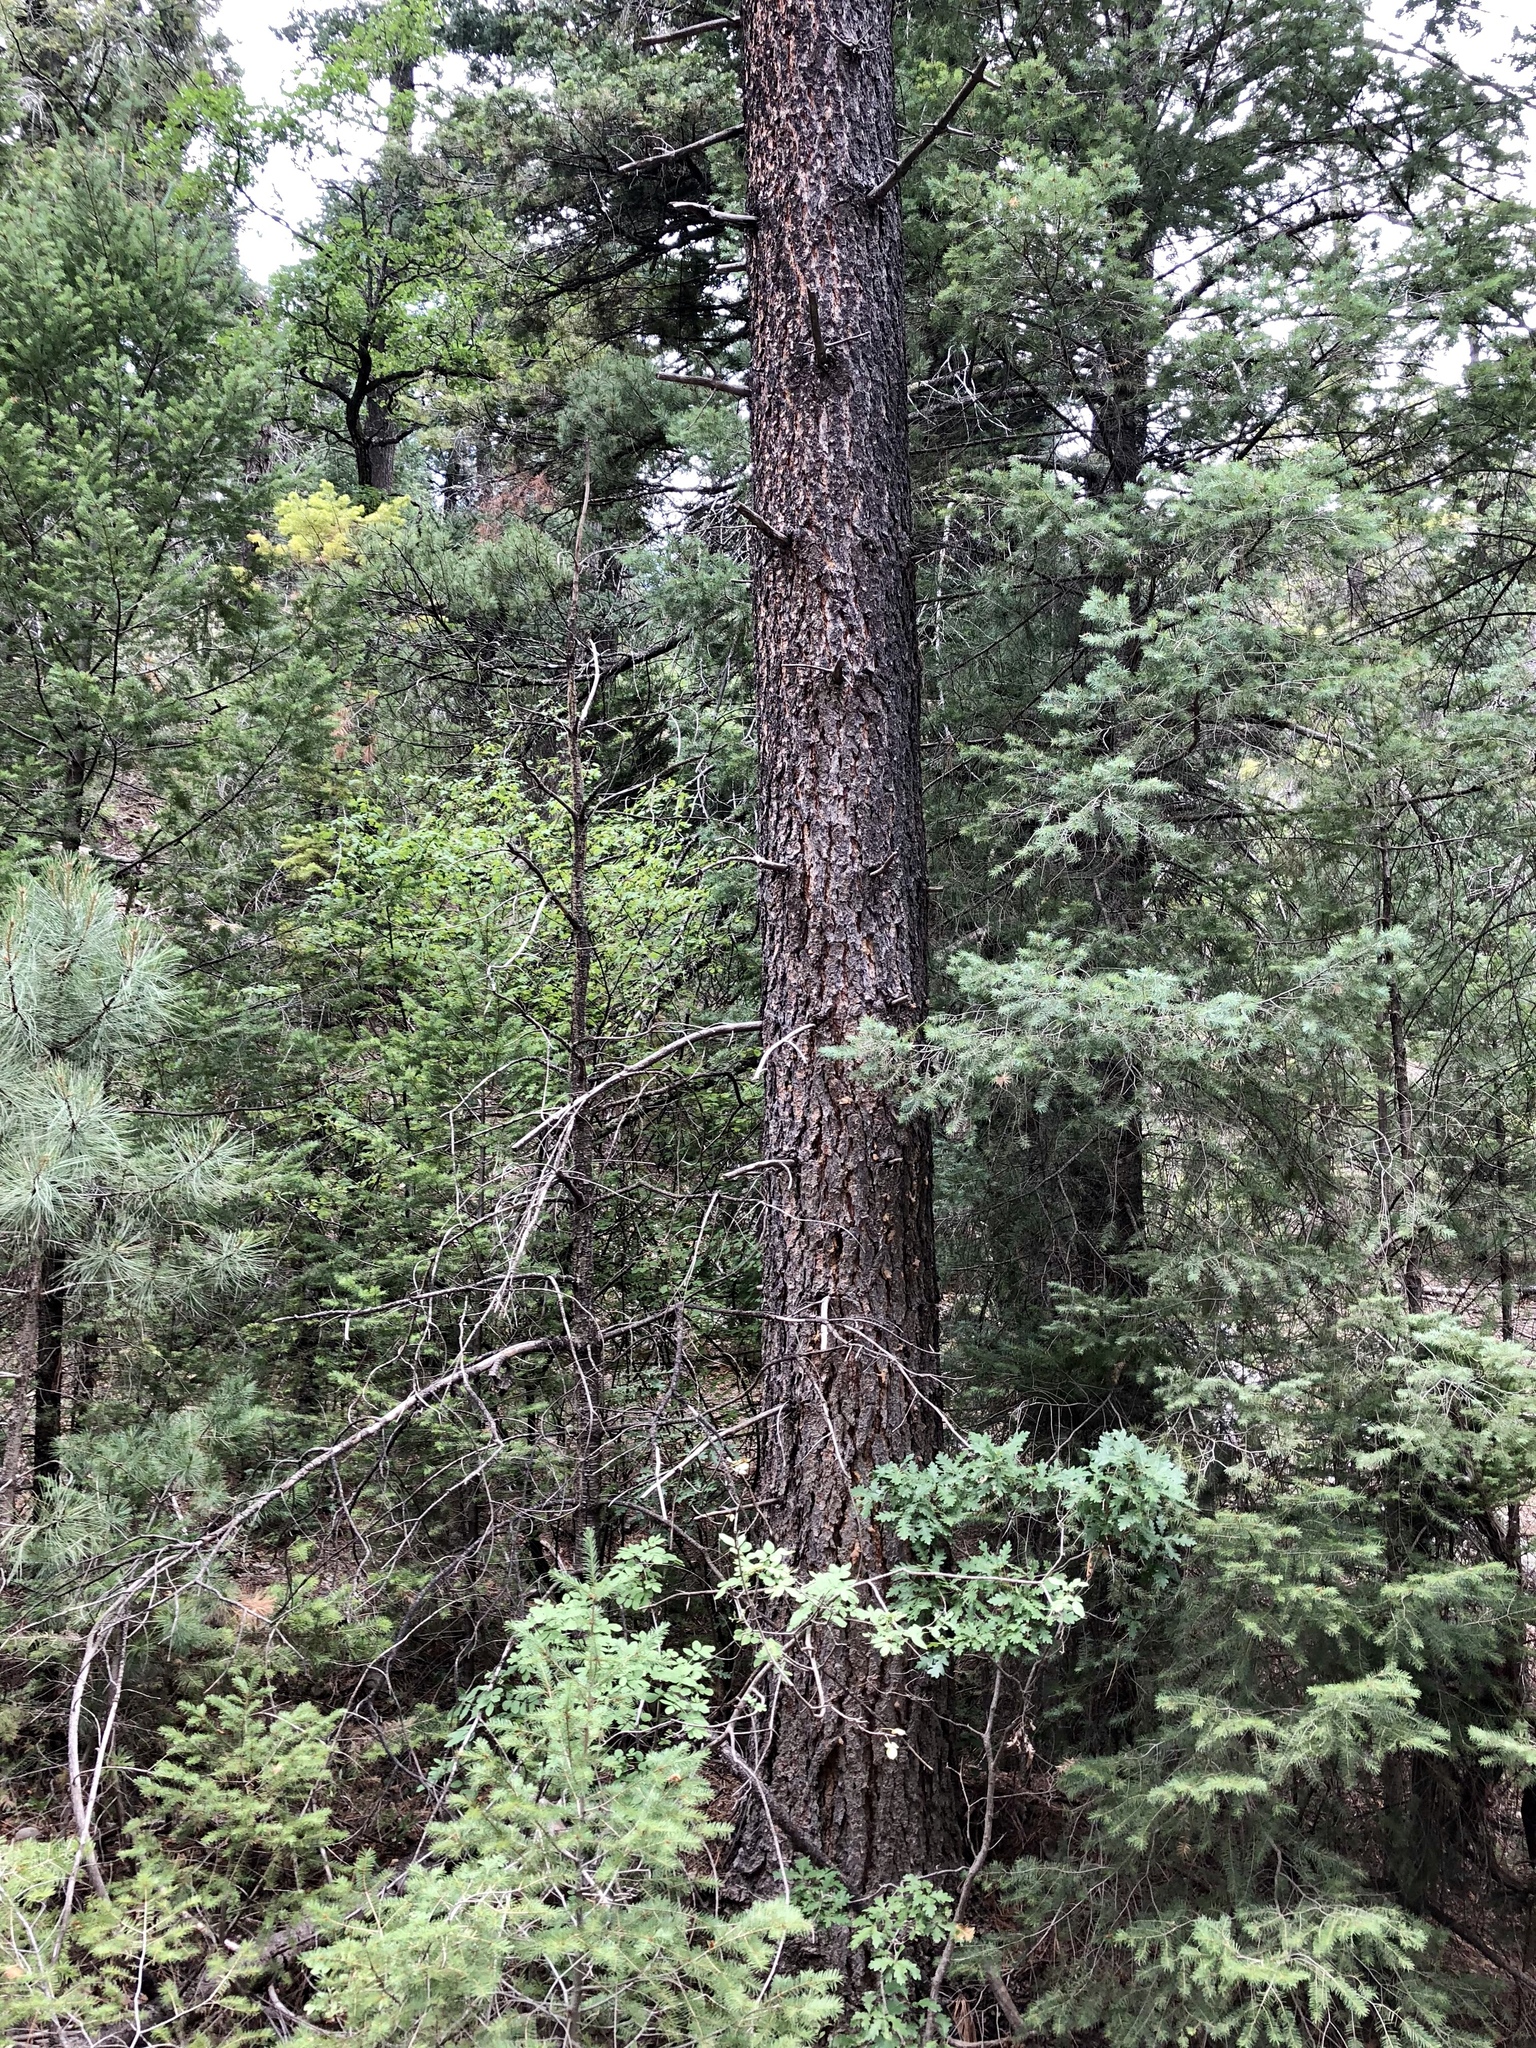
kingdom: Plantae
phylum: Tracheophyta
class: Pinopsida
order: Pinales
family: Pinaceae
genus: Pinus
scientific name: Pinus strobiformis
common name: Southwestern white pine
